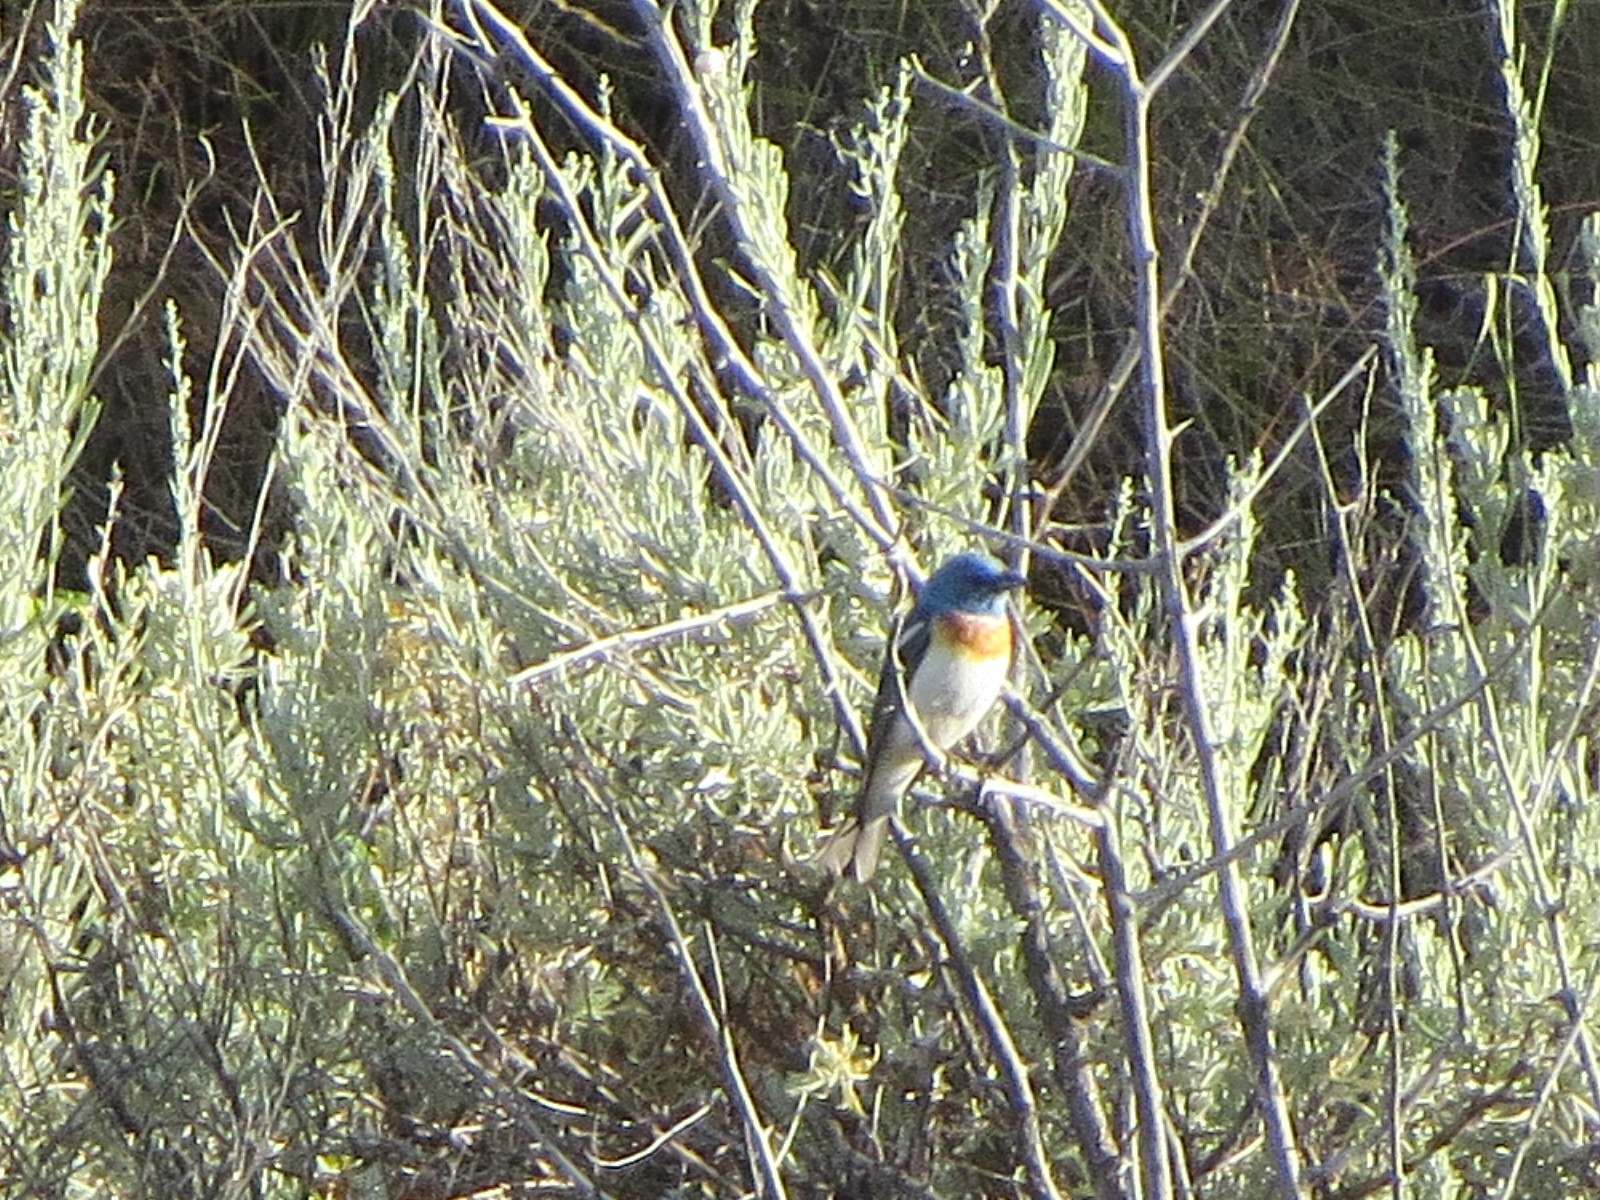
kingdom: Animalia
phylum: Chordata
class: Aves
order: Passeriformes
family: Cardinalidae
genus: Passerina
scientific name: Passerina amoena
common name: Lazuli bunting
